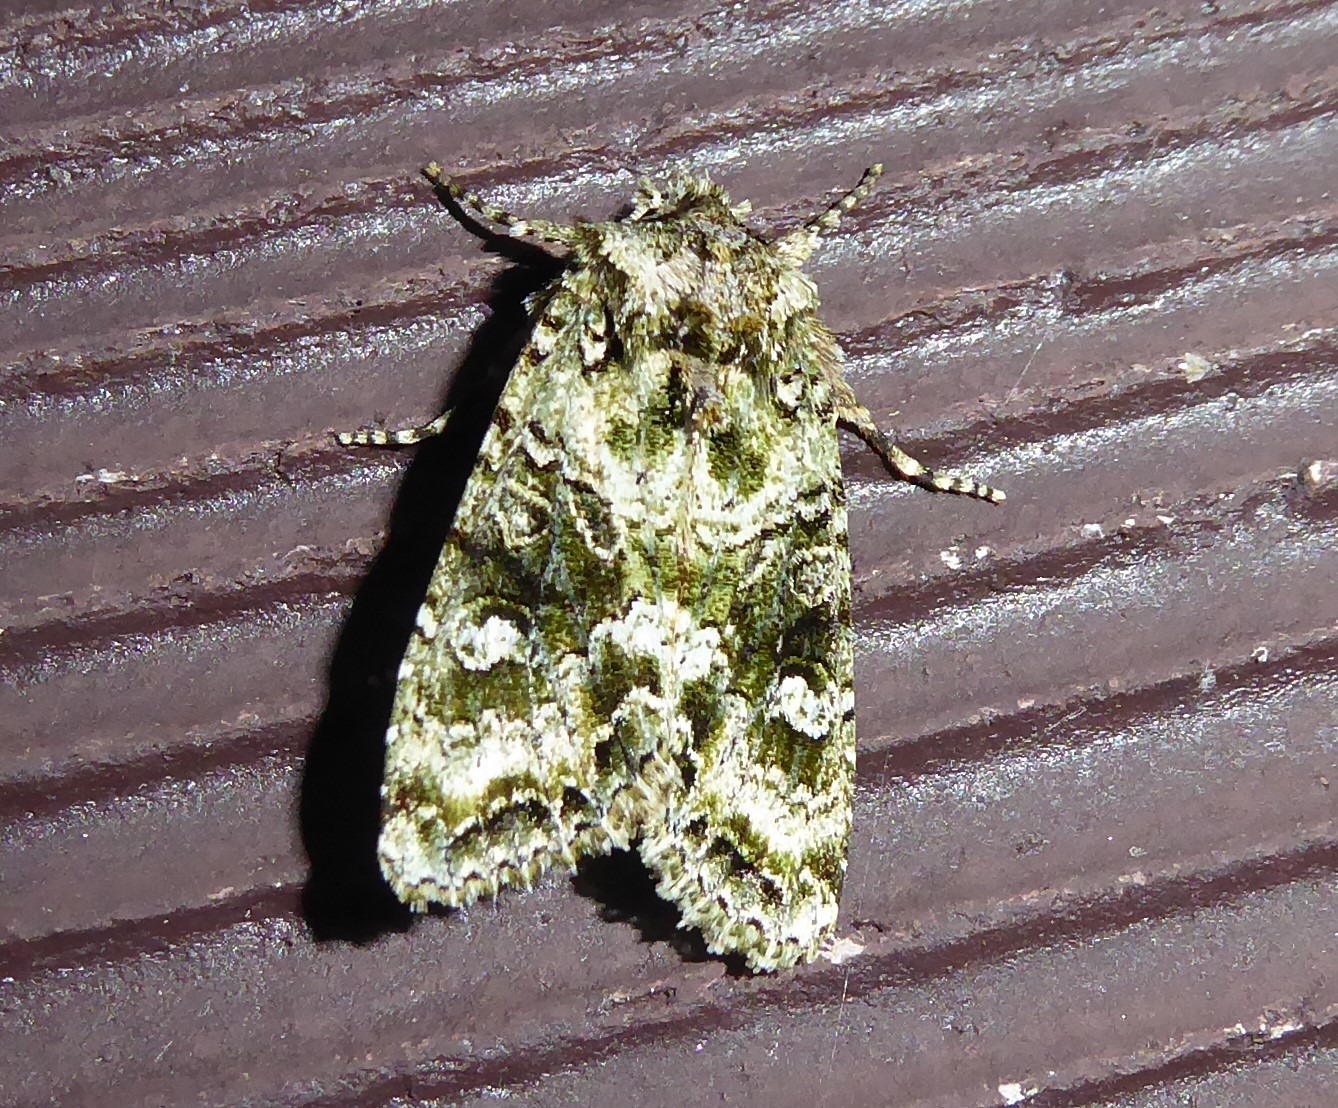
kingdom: Animalia
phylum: Arthropoda
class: Insecta
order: Lepidoptera
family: Noctuidae
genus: Ichneutica
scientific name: Ichneutica
